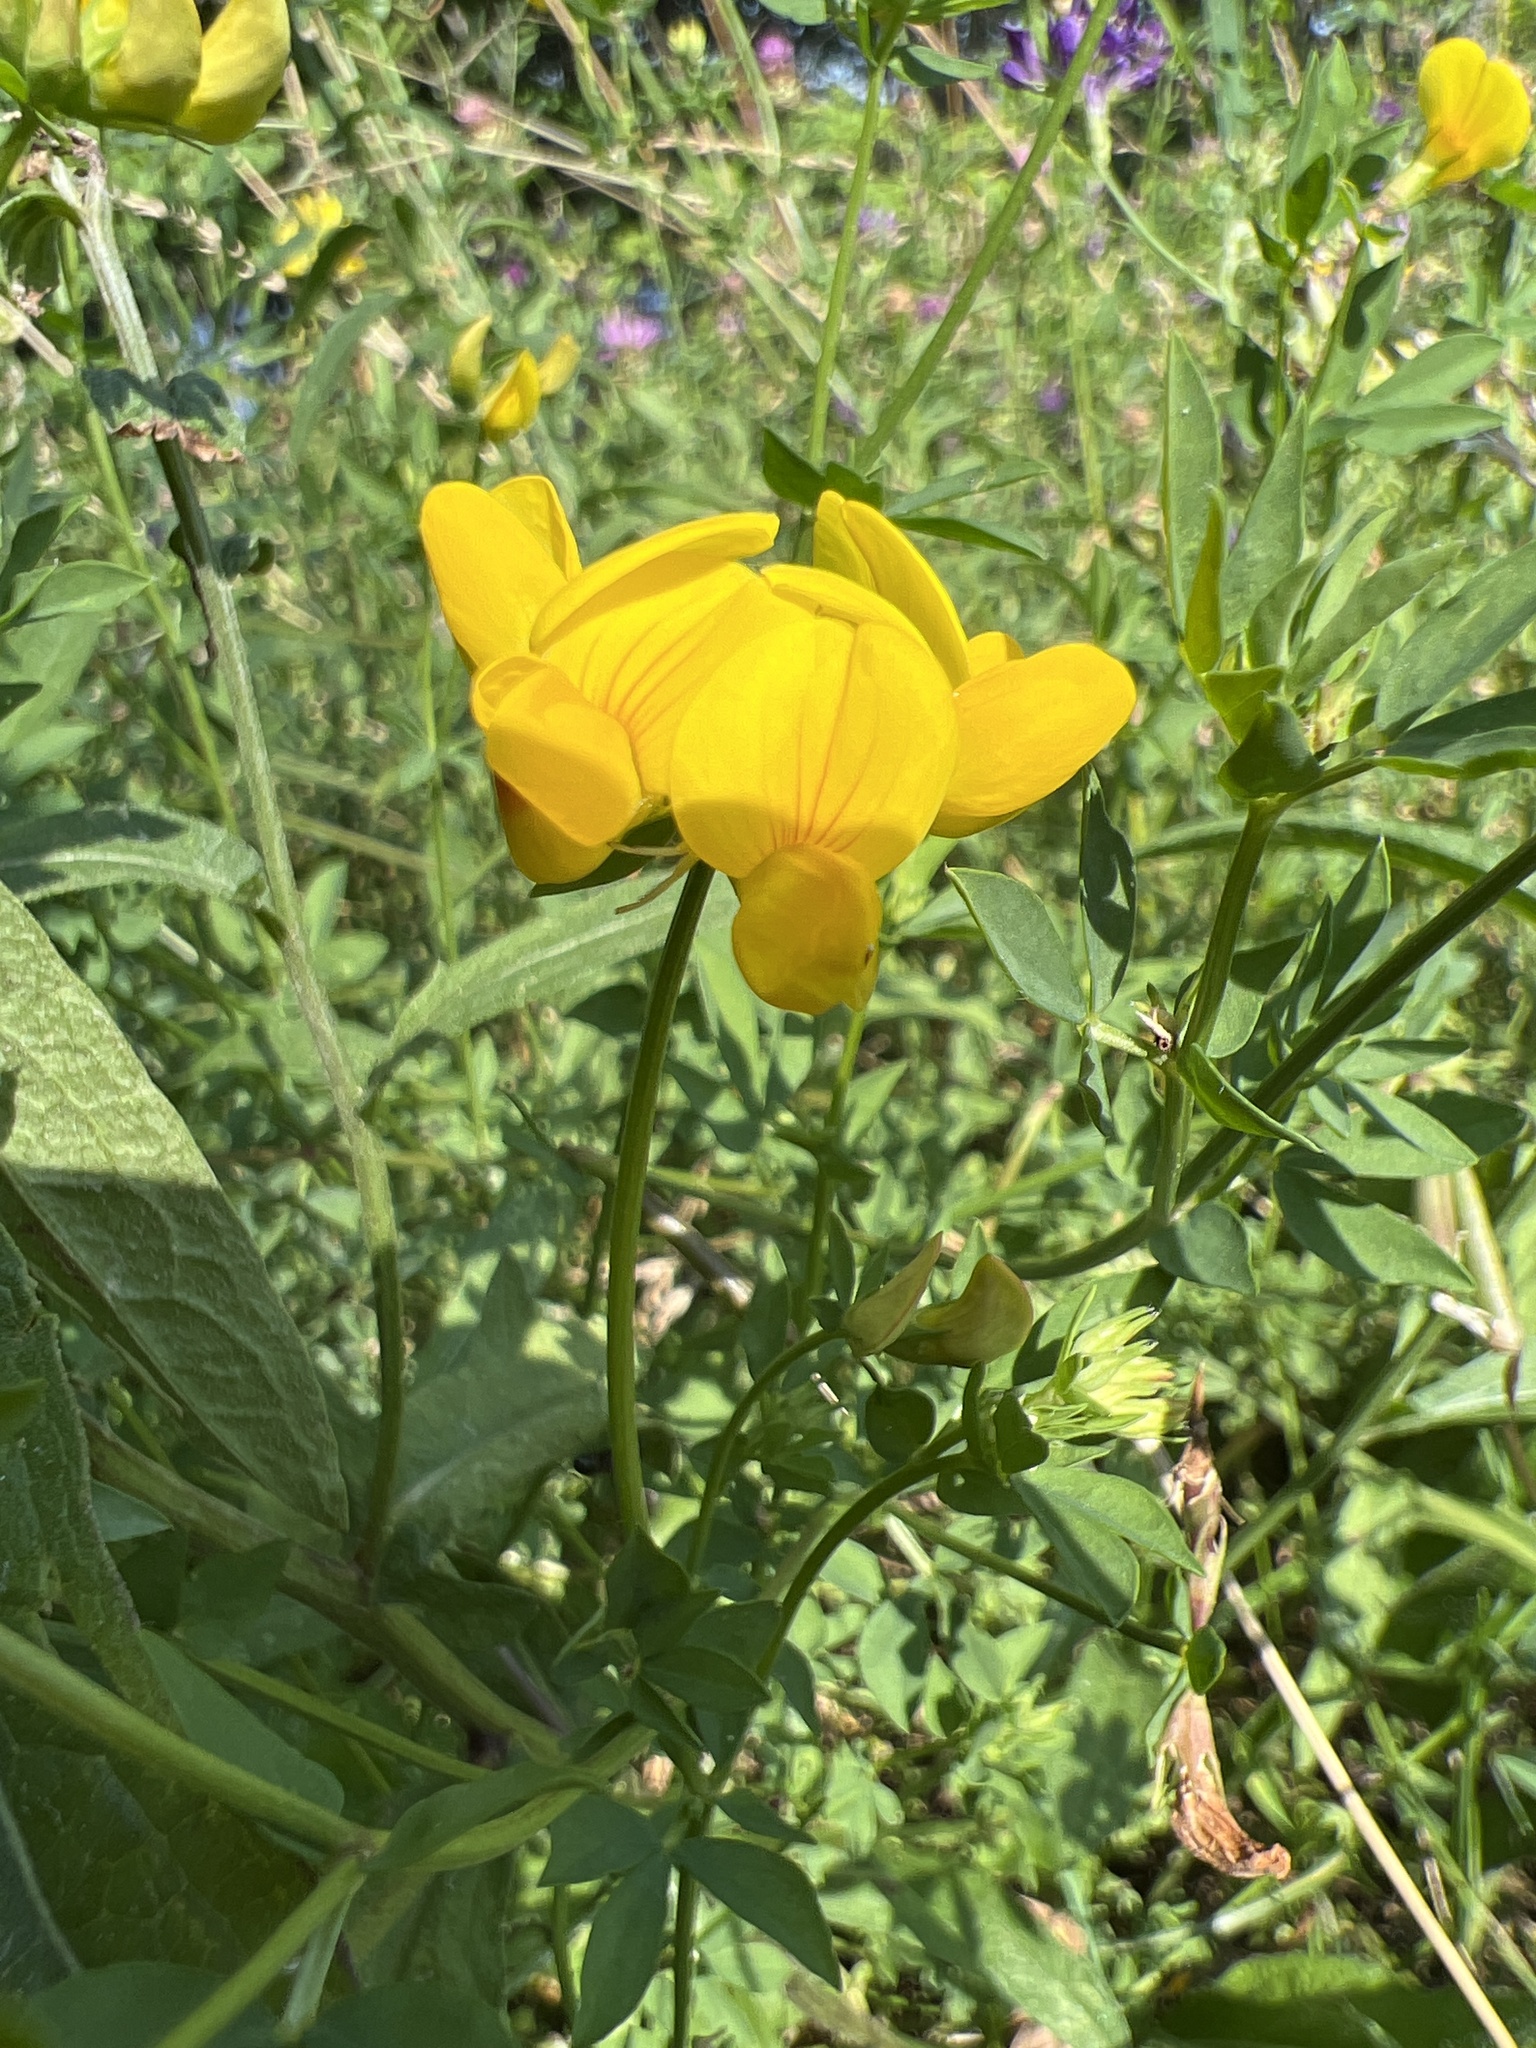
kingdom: Plantae
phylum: Tracheophyta
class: Magnoliopsida
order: Fabales
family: Fabaceae
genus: Lotus
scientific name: Lotus corniculatus
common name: Common bird's-foot-trefoil
